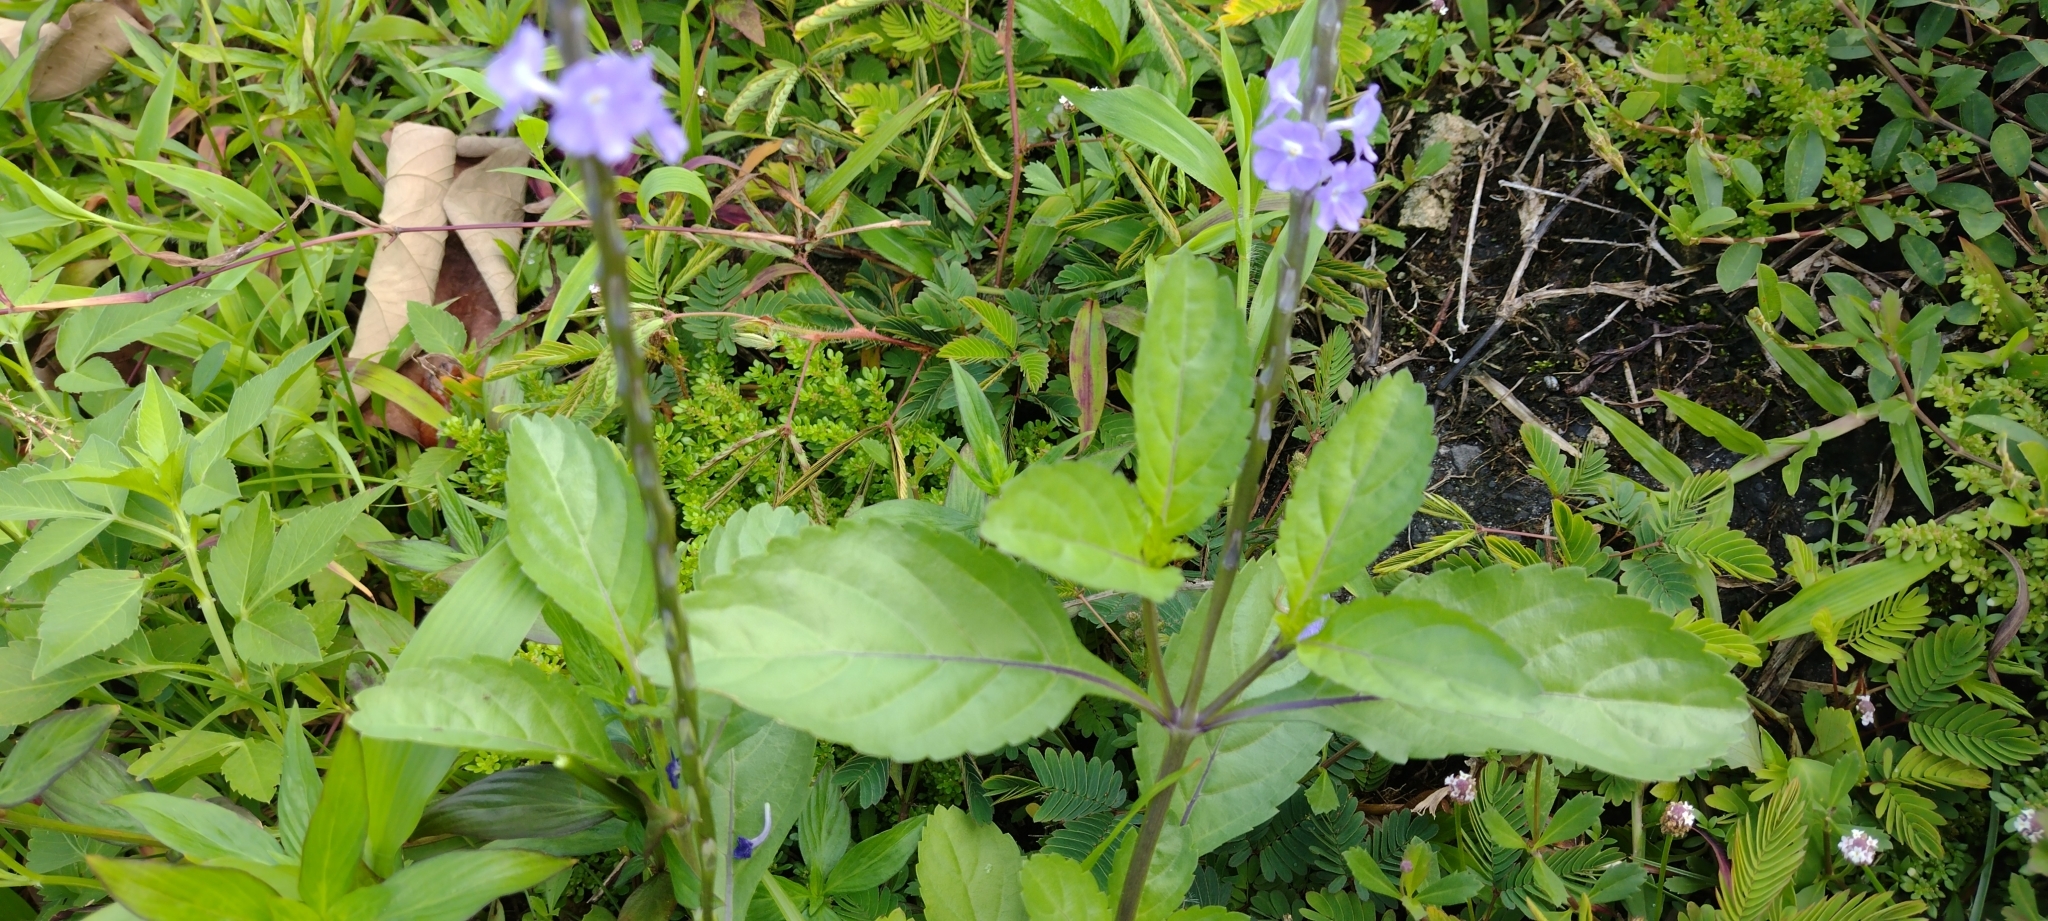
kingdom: Plantae
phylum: Tracheophyta
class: Magnoliopsida
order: Lamiales
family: Verbenaceae
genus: Stachytarpheta
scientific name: Stachytarpheta jamaicensis
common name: Light-blue snakeweed
